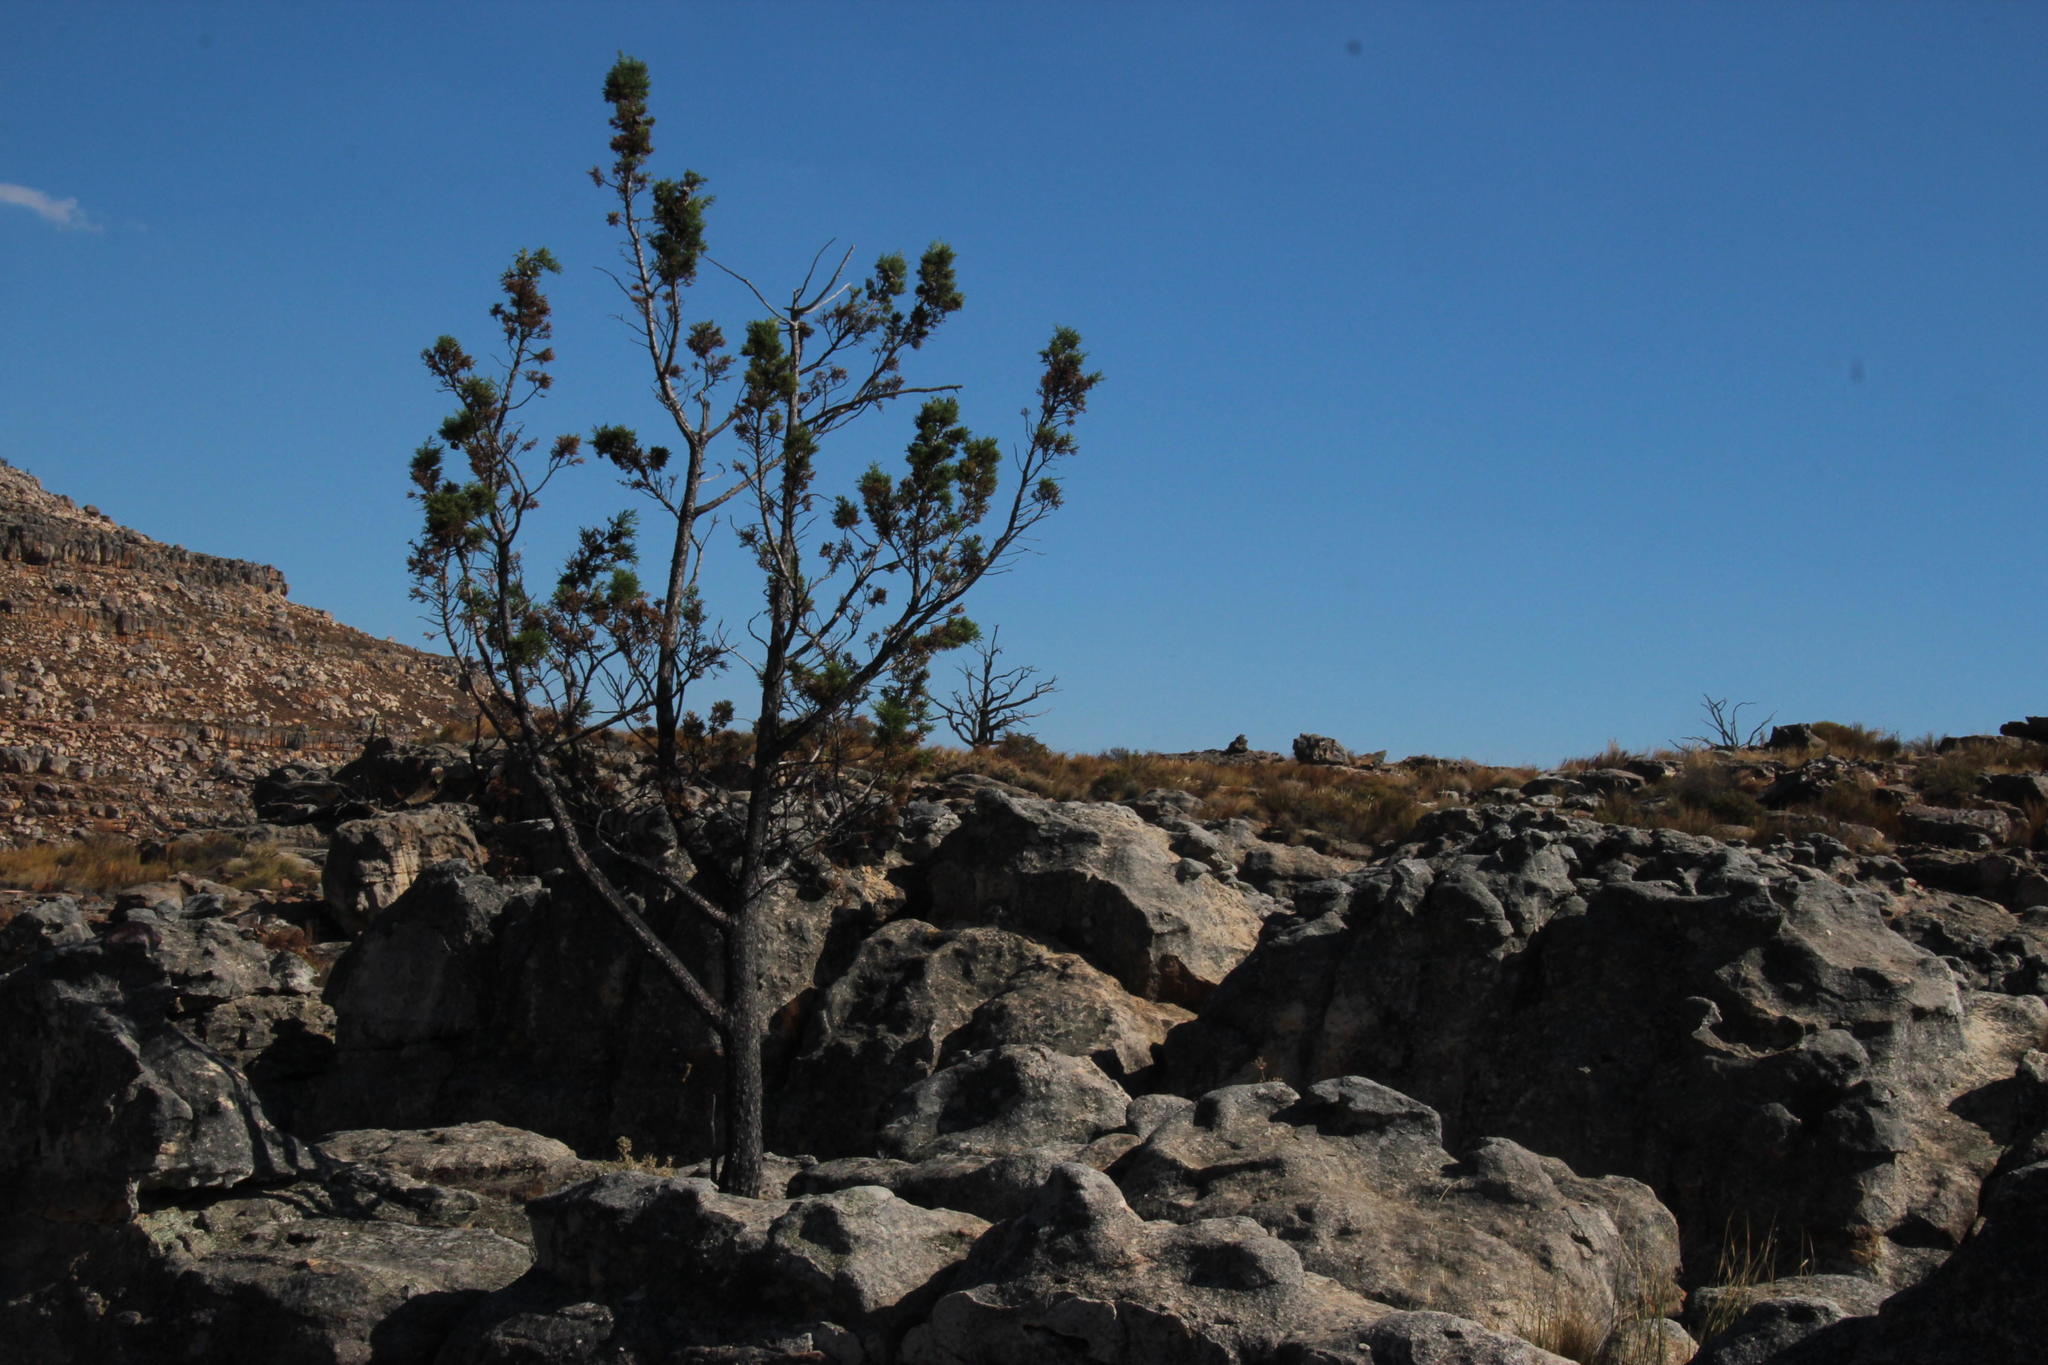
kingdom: Plantae
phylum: Tracheophyta
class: Pinopsida
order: Pinales
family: Cupressaceae
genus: Widdringtonia
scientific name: Widdringtonia nodiflora
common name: Cape cypress
